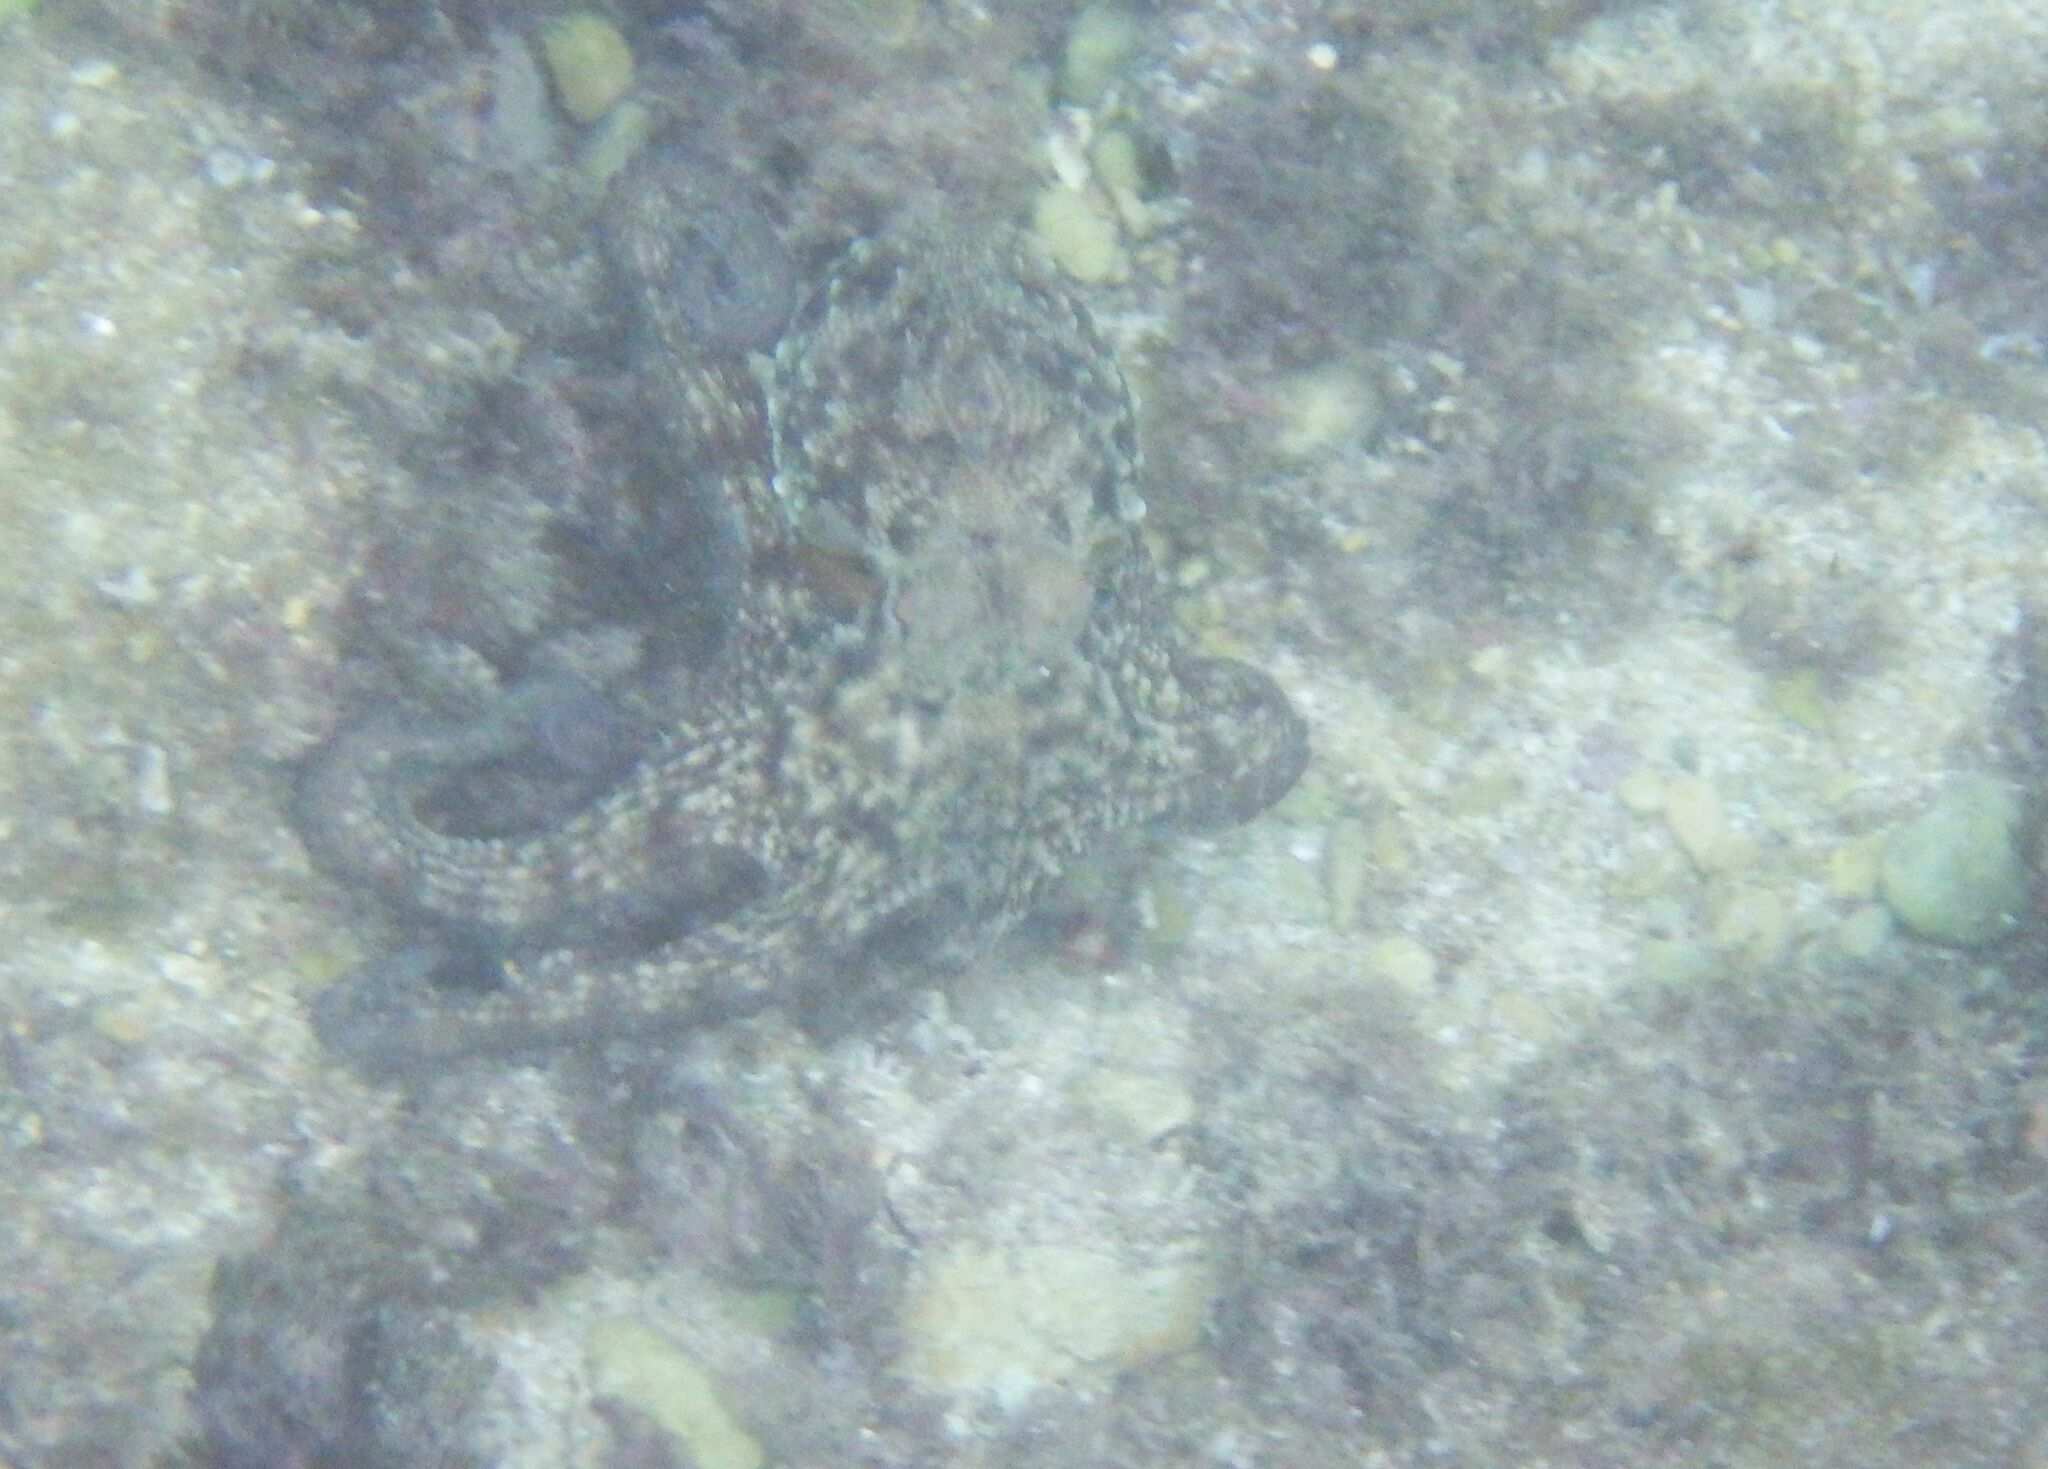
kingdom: Animalia
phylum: Mollusca
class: Cephalopoda
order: Octopoda
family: Octopodidae
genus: Octopus
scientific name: Octopus vulgaris
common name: Common octopus
